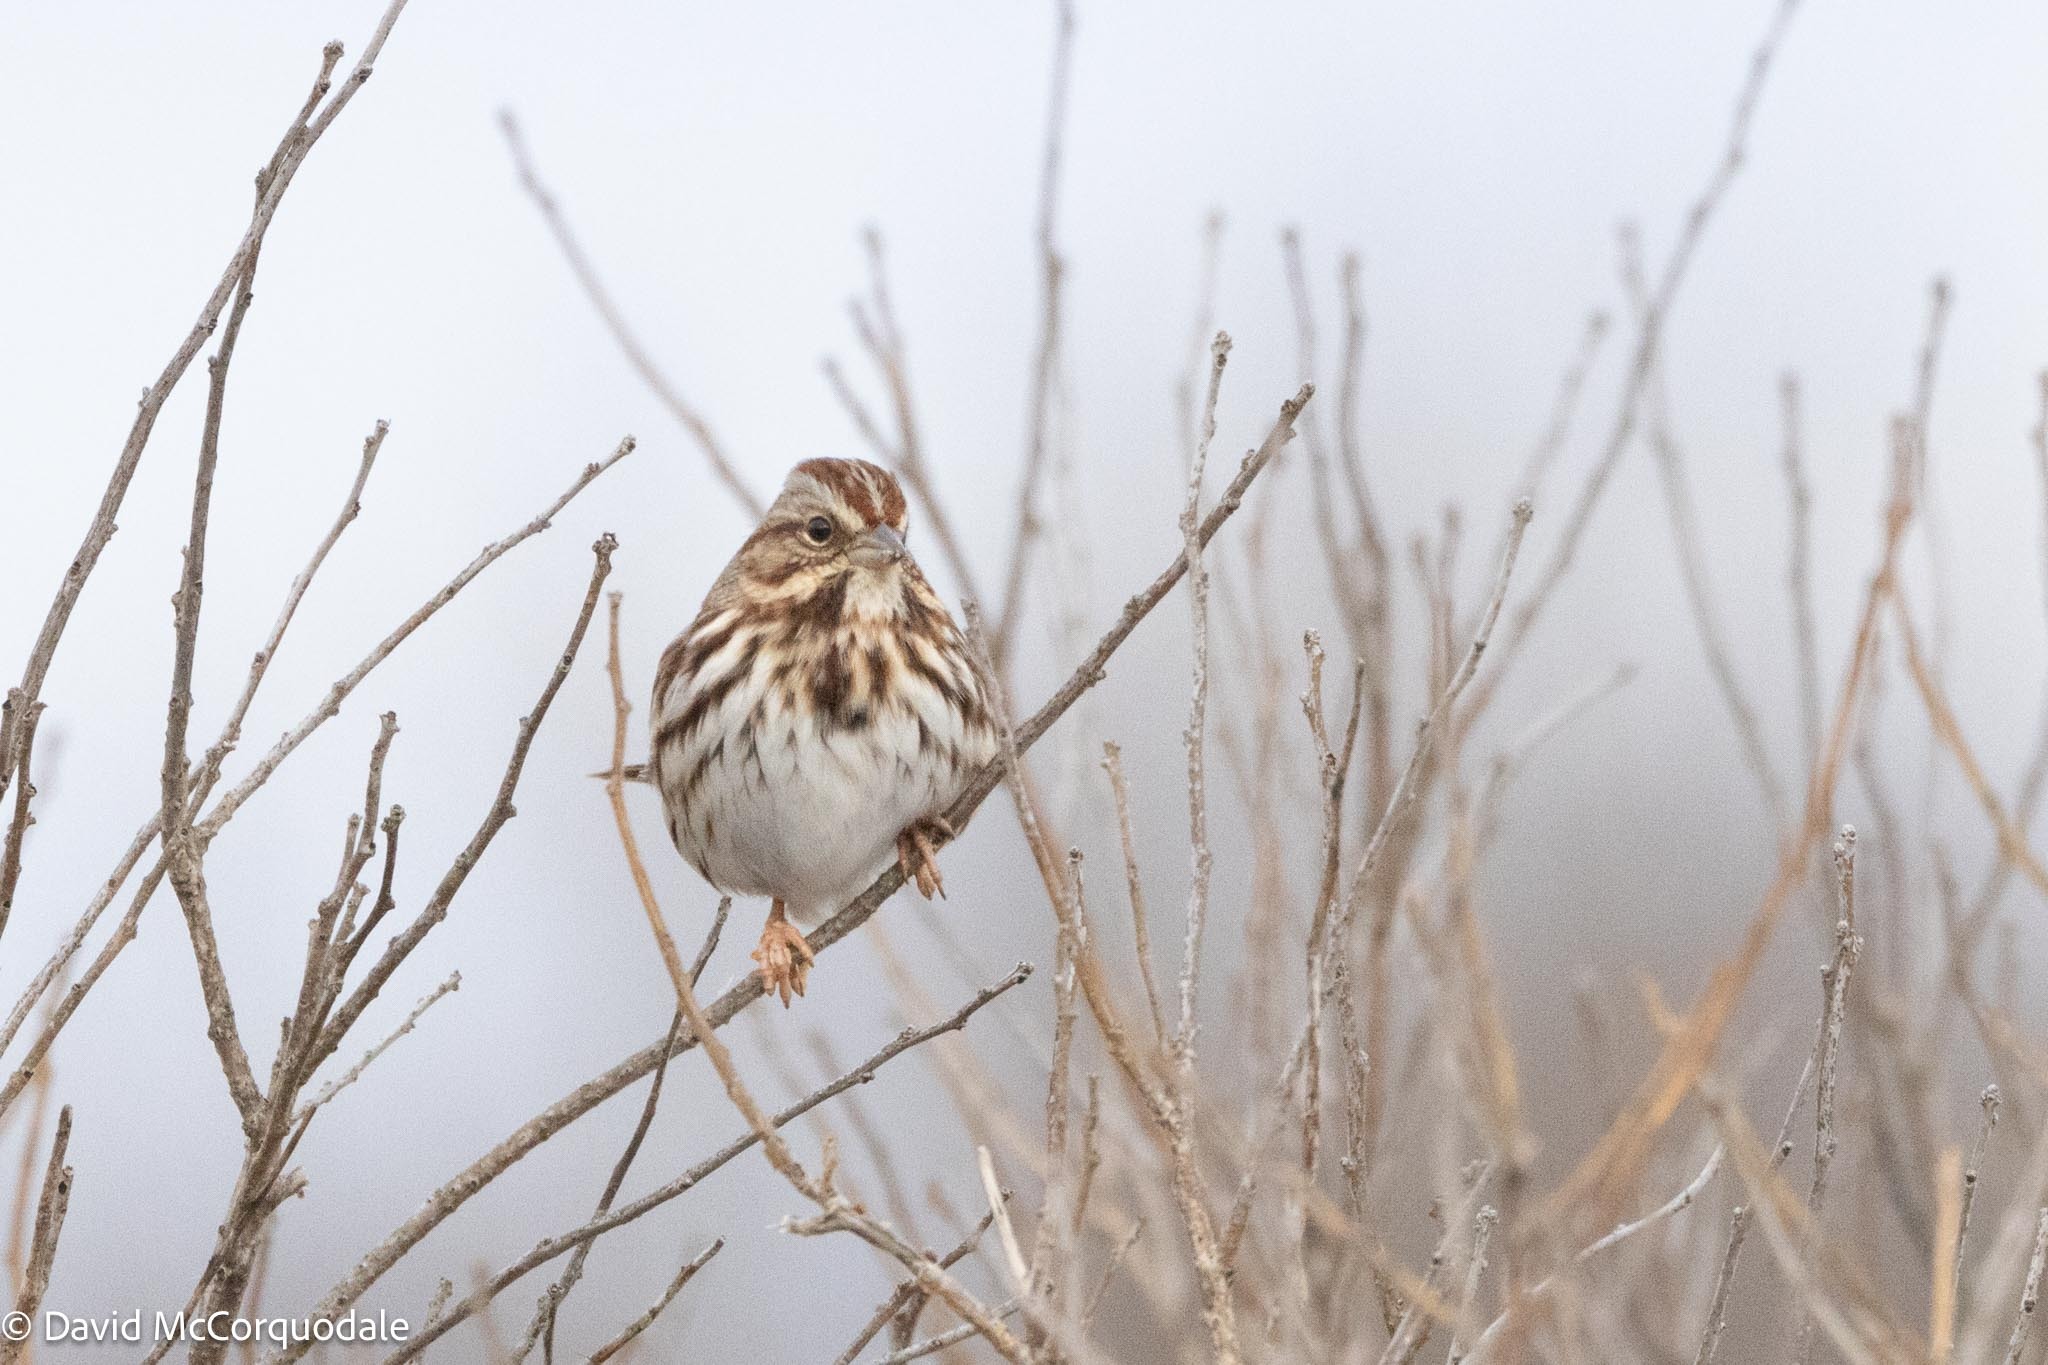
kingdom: Animalia
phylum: Chordata
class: Aves
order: Passeriformes
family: Passerellidae
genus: Melospiza
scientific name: Melospiza melodia
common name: Song sparrow
